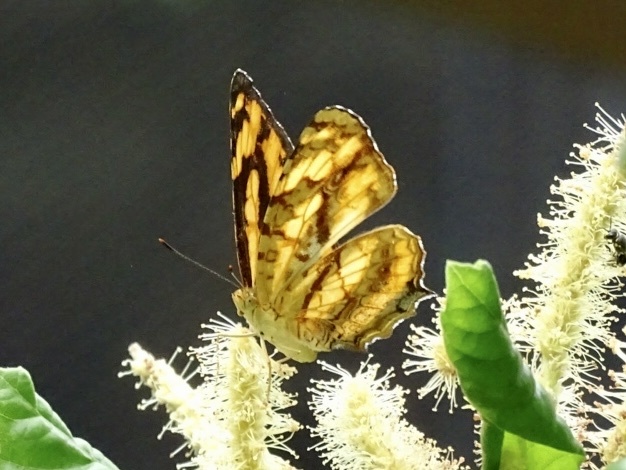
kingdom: Animalia
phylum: Arthropoda
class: Insecta
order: Lepidoptera
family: Nymphalidae
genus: Symbrenthia
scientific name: Symbrenthia hypselis
